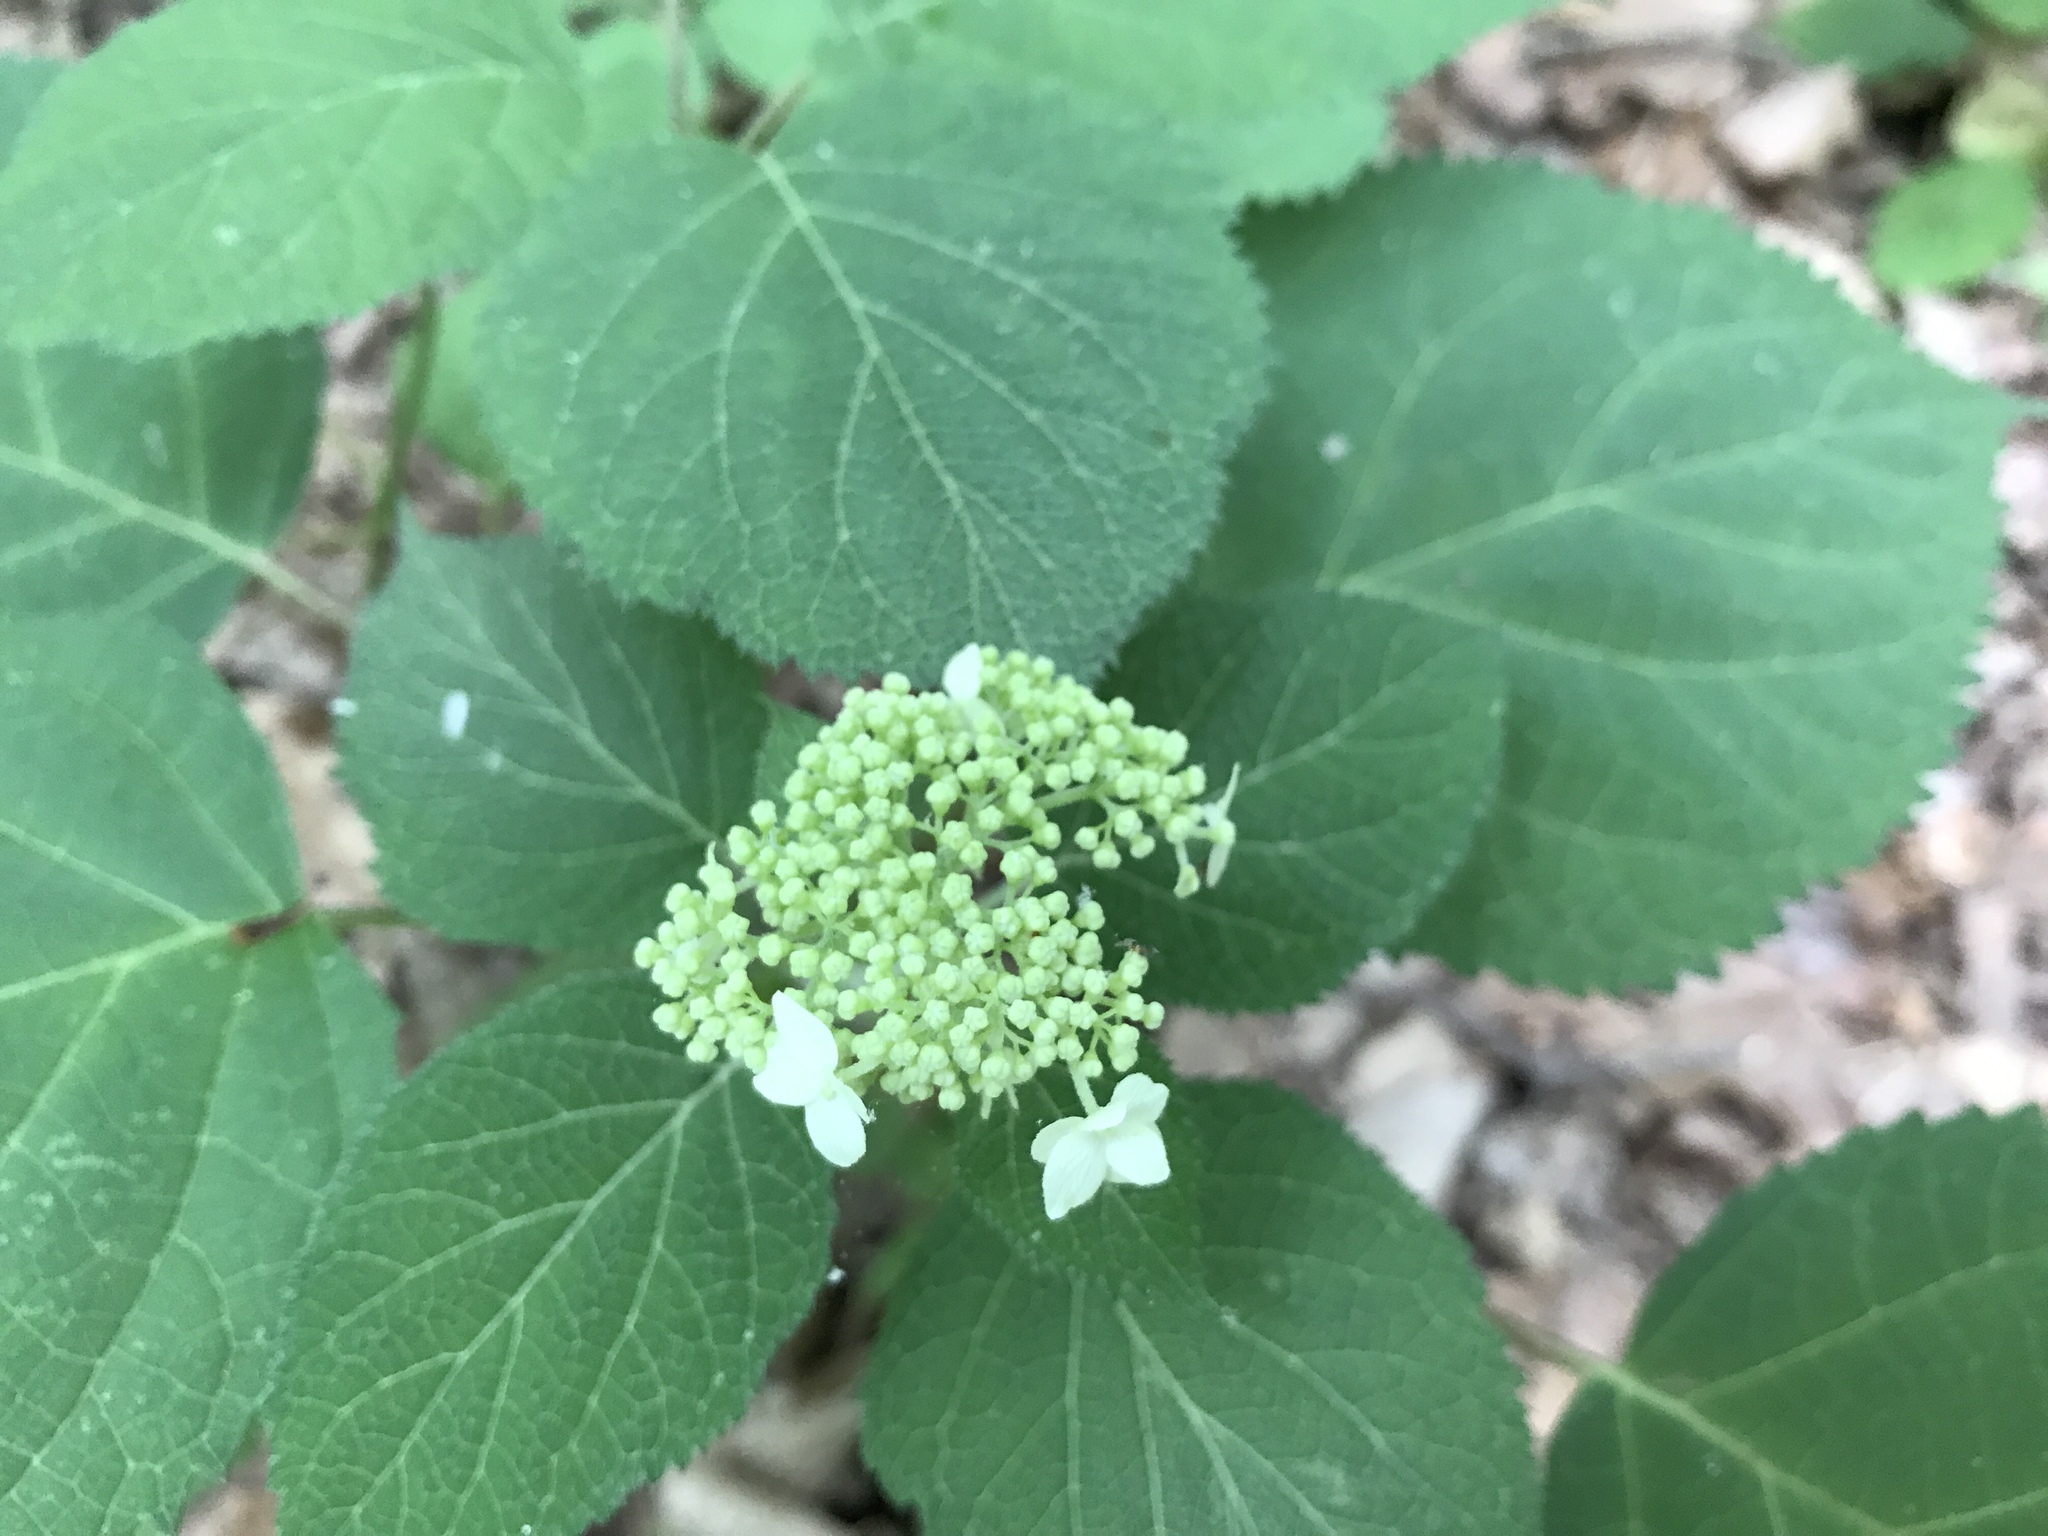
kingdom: Plantae
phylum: Tracheophyta
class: Magnoliopsida
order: Cornales
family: Hydrangeaceae
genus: Hydrangea
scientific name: Hydrangea arborescens
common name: Sevenbark
